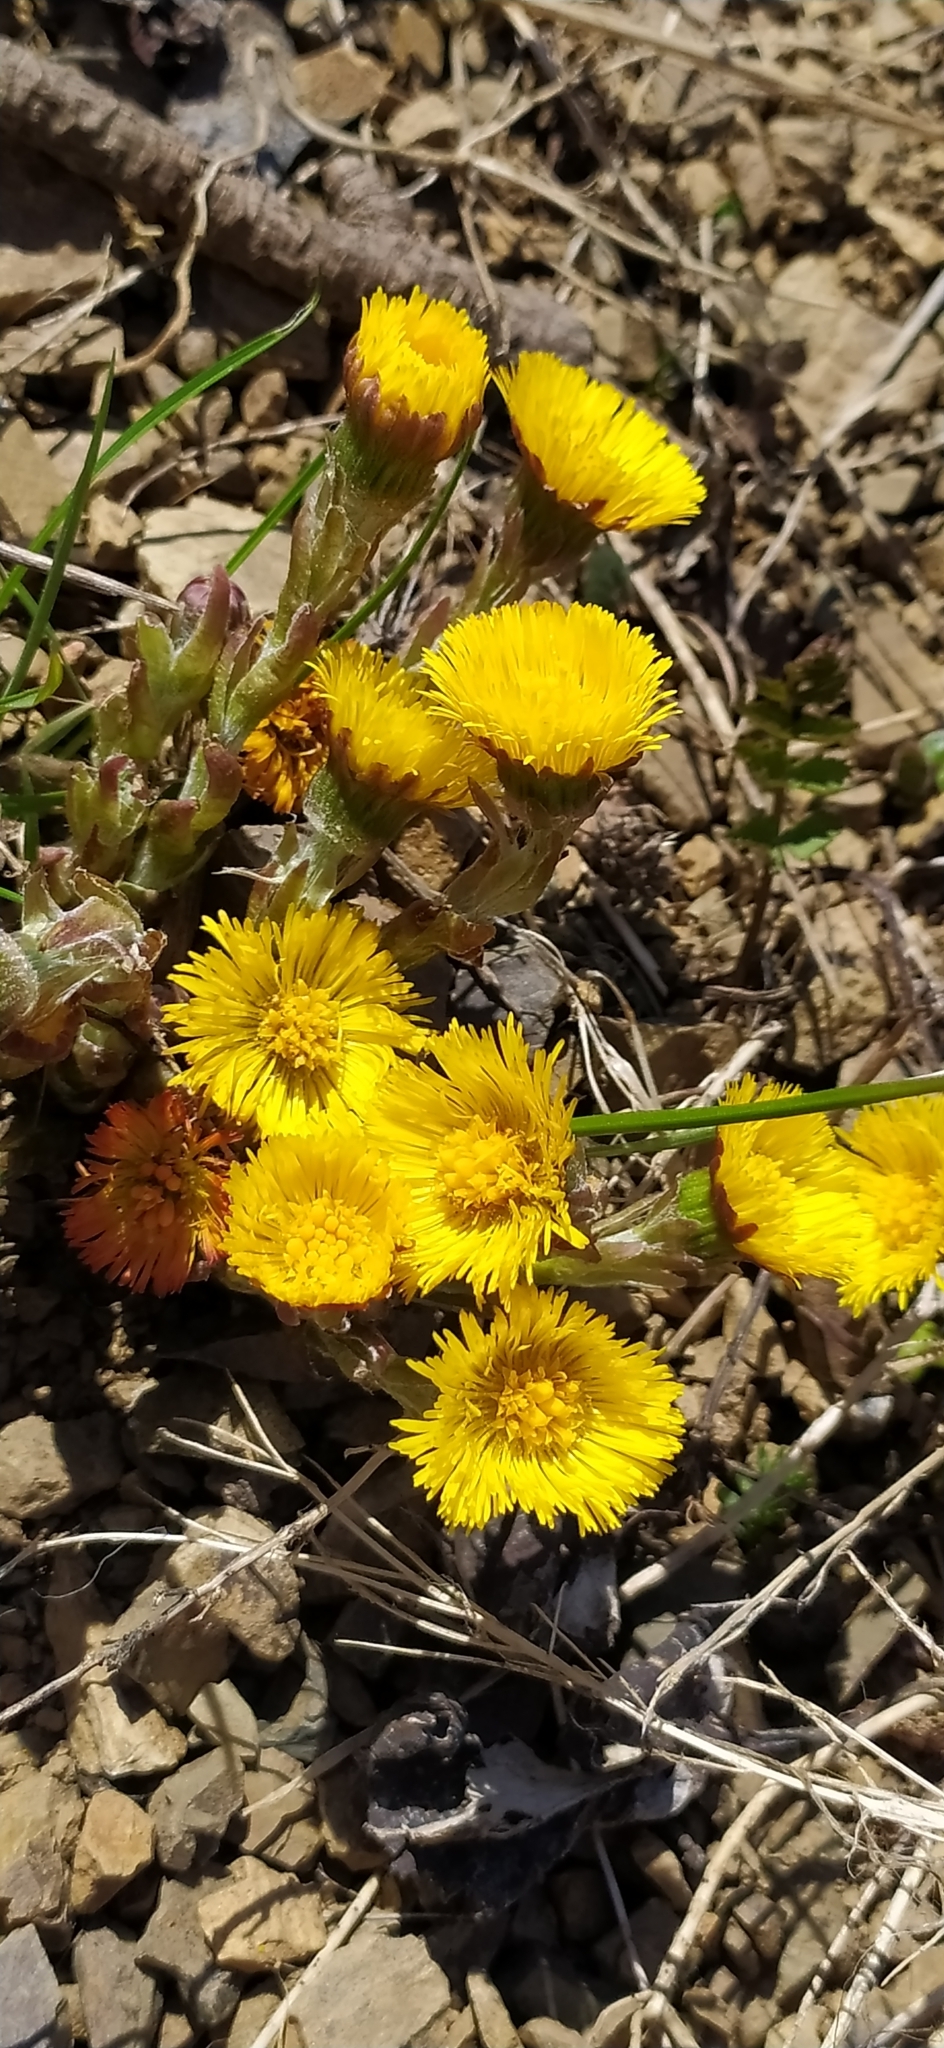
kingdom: Plantae
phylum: Tracheophyta
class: Magnoliopsida
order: Asterales
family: Asteraceae
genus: Tussilago
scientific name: Tussilago farfara
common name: Coltsfoot
